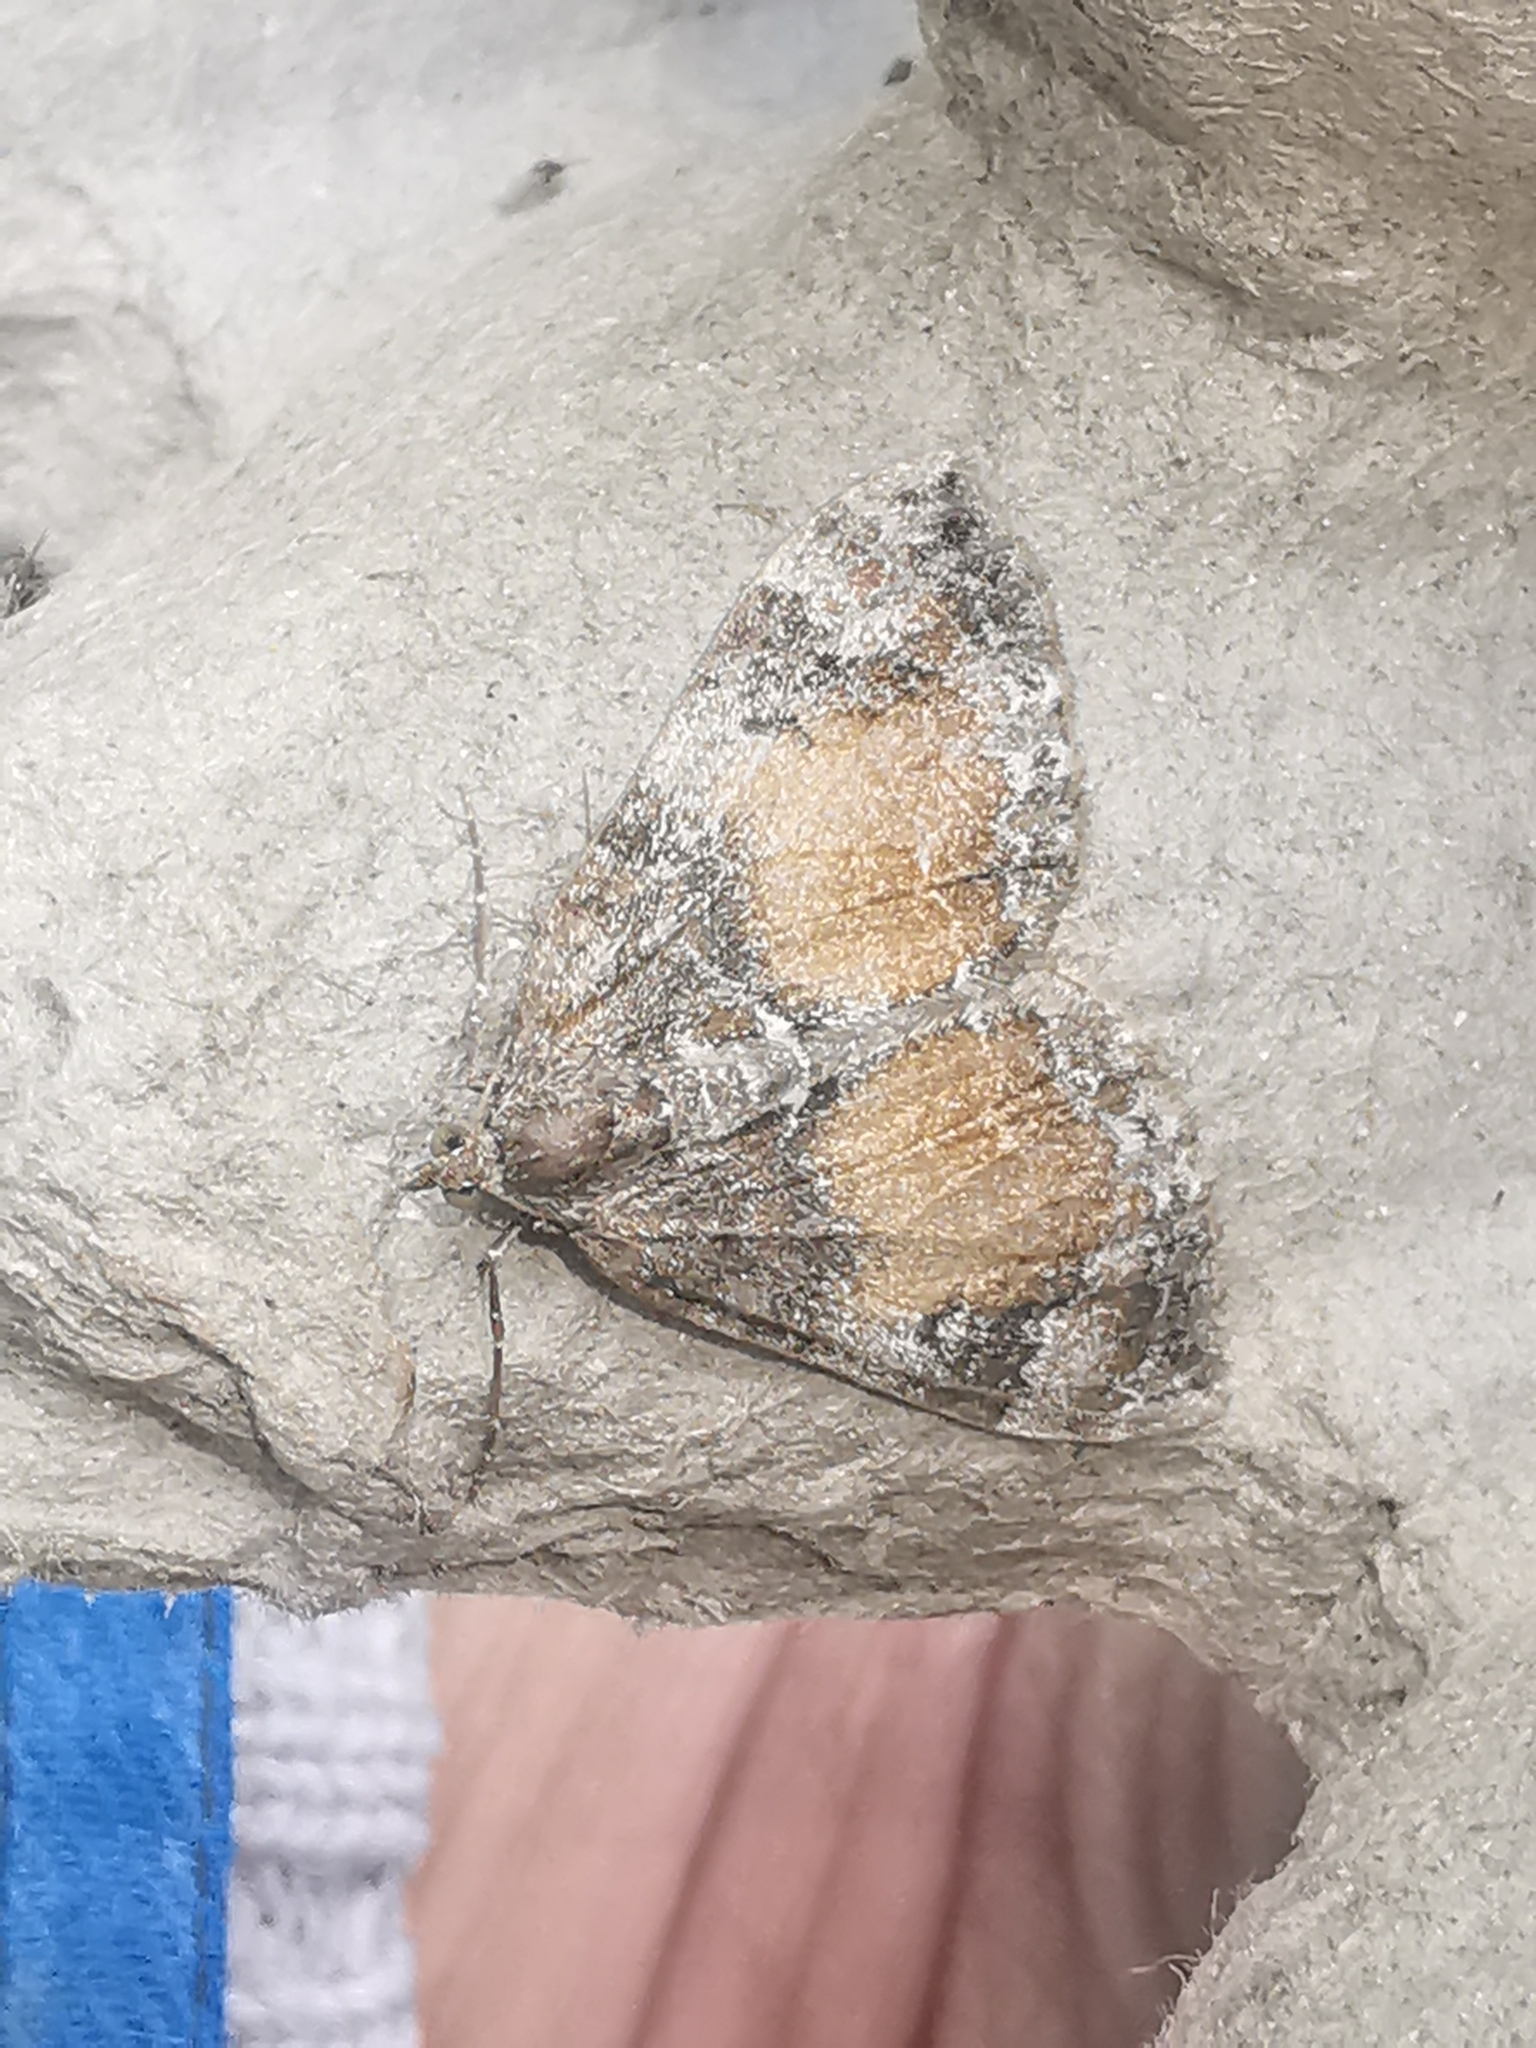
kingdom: Animalia
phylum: Arthropoda
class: Insecta
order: Lepidoptera
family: Geometridae
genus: Dysstroma
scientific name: Dysstroma truncata
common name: Common marbled carpet
